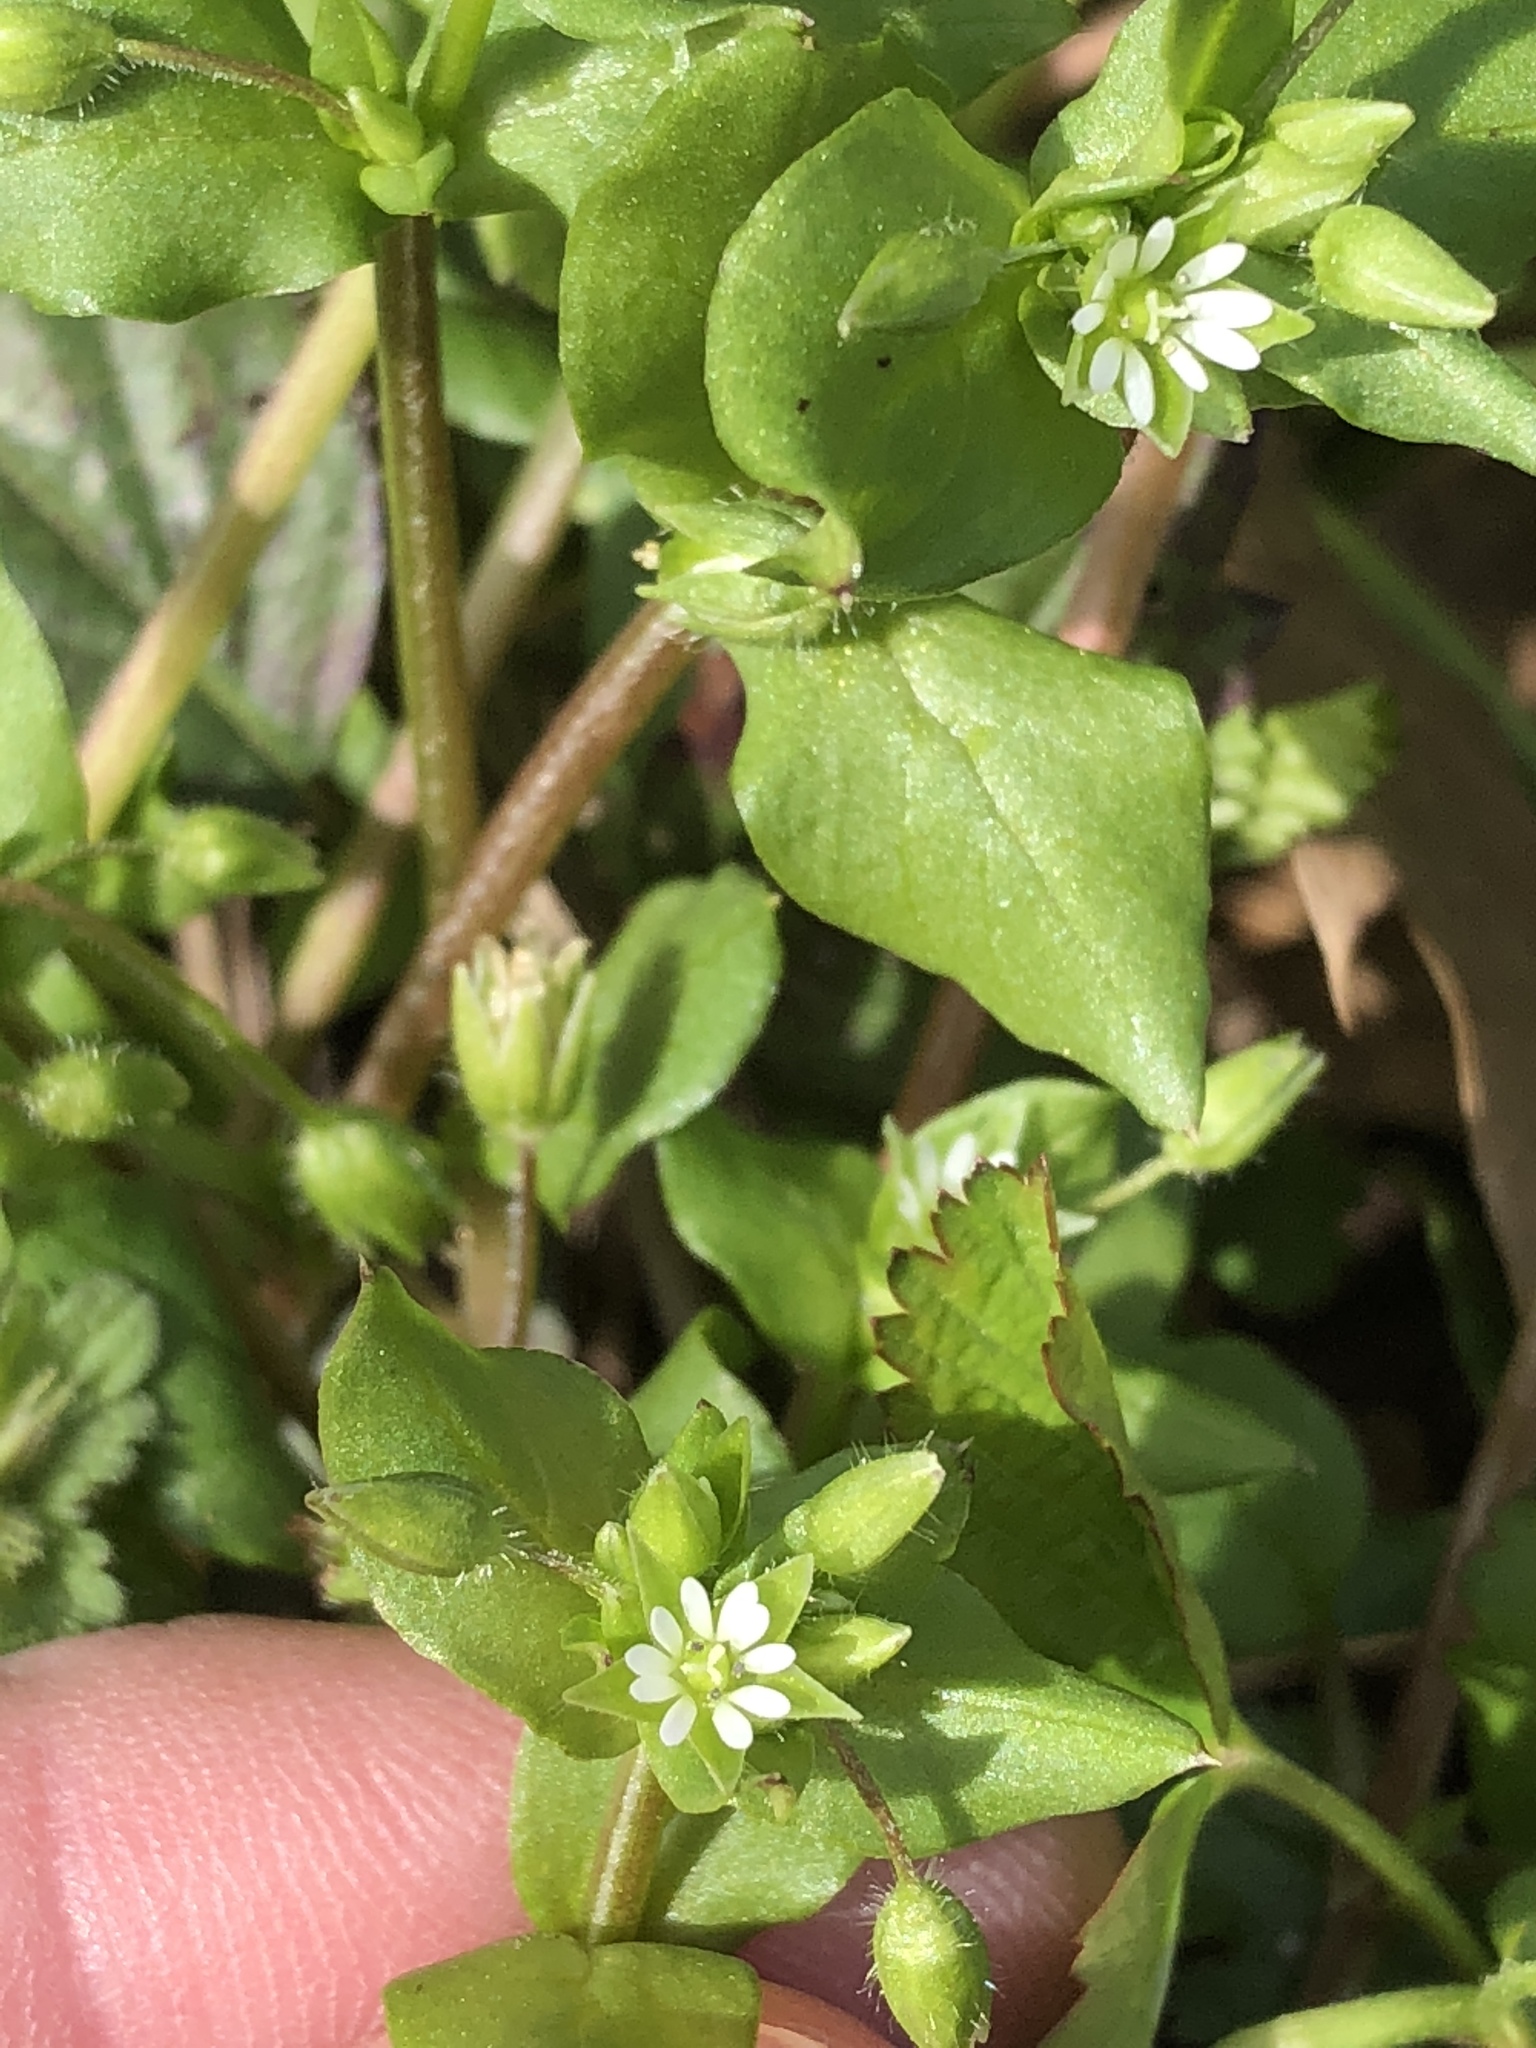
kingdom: Plantae
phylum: Tracheophyta
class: Magnoliopsida
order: Caryophyllales
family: Caryophyllaceae
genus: Stellaria
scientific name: Stellaria media
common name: Common chickweed
